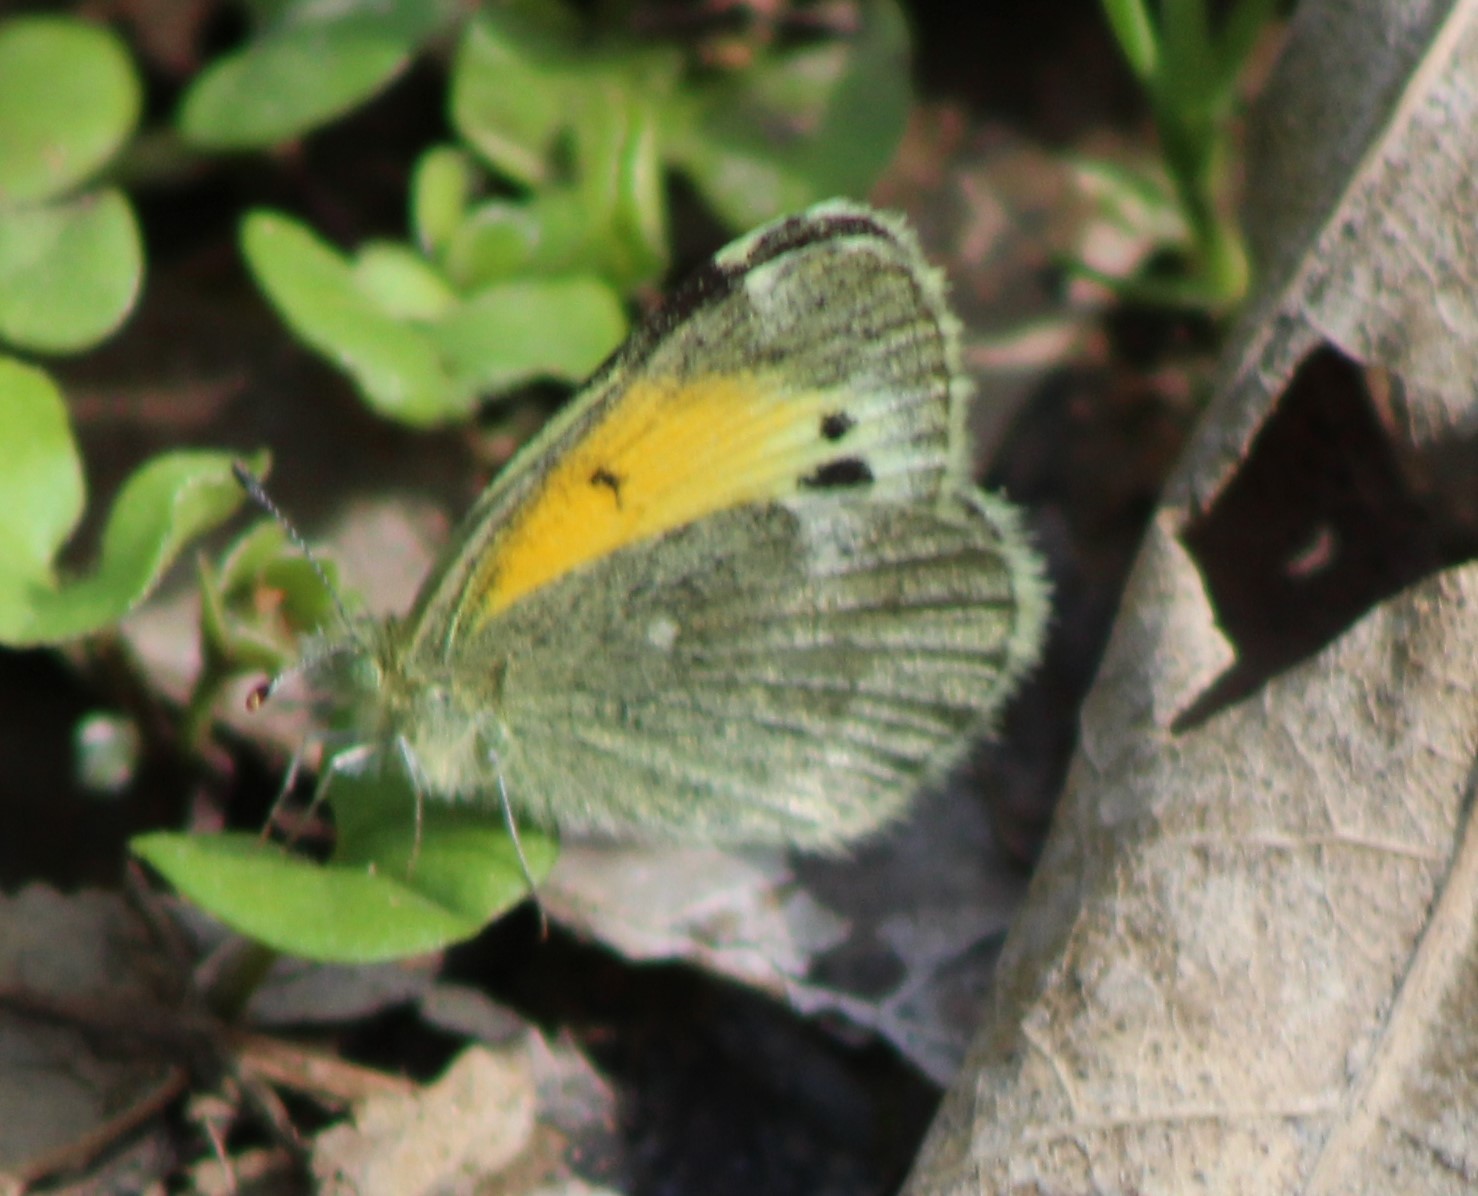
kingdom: Animalia
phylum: Arthropoda
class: Insecta
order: Lepidoptera
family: Pieridae
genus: Nathalis
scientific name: Nathalis iole
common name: Dainty sulphur
